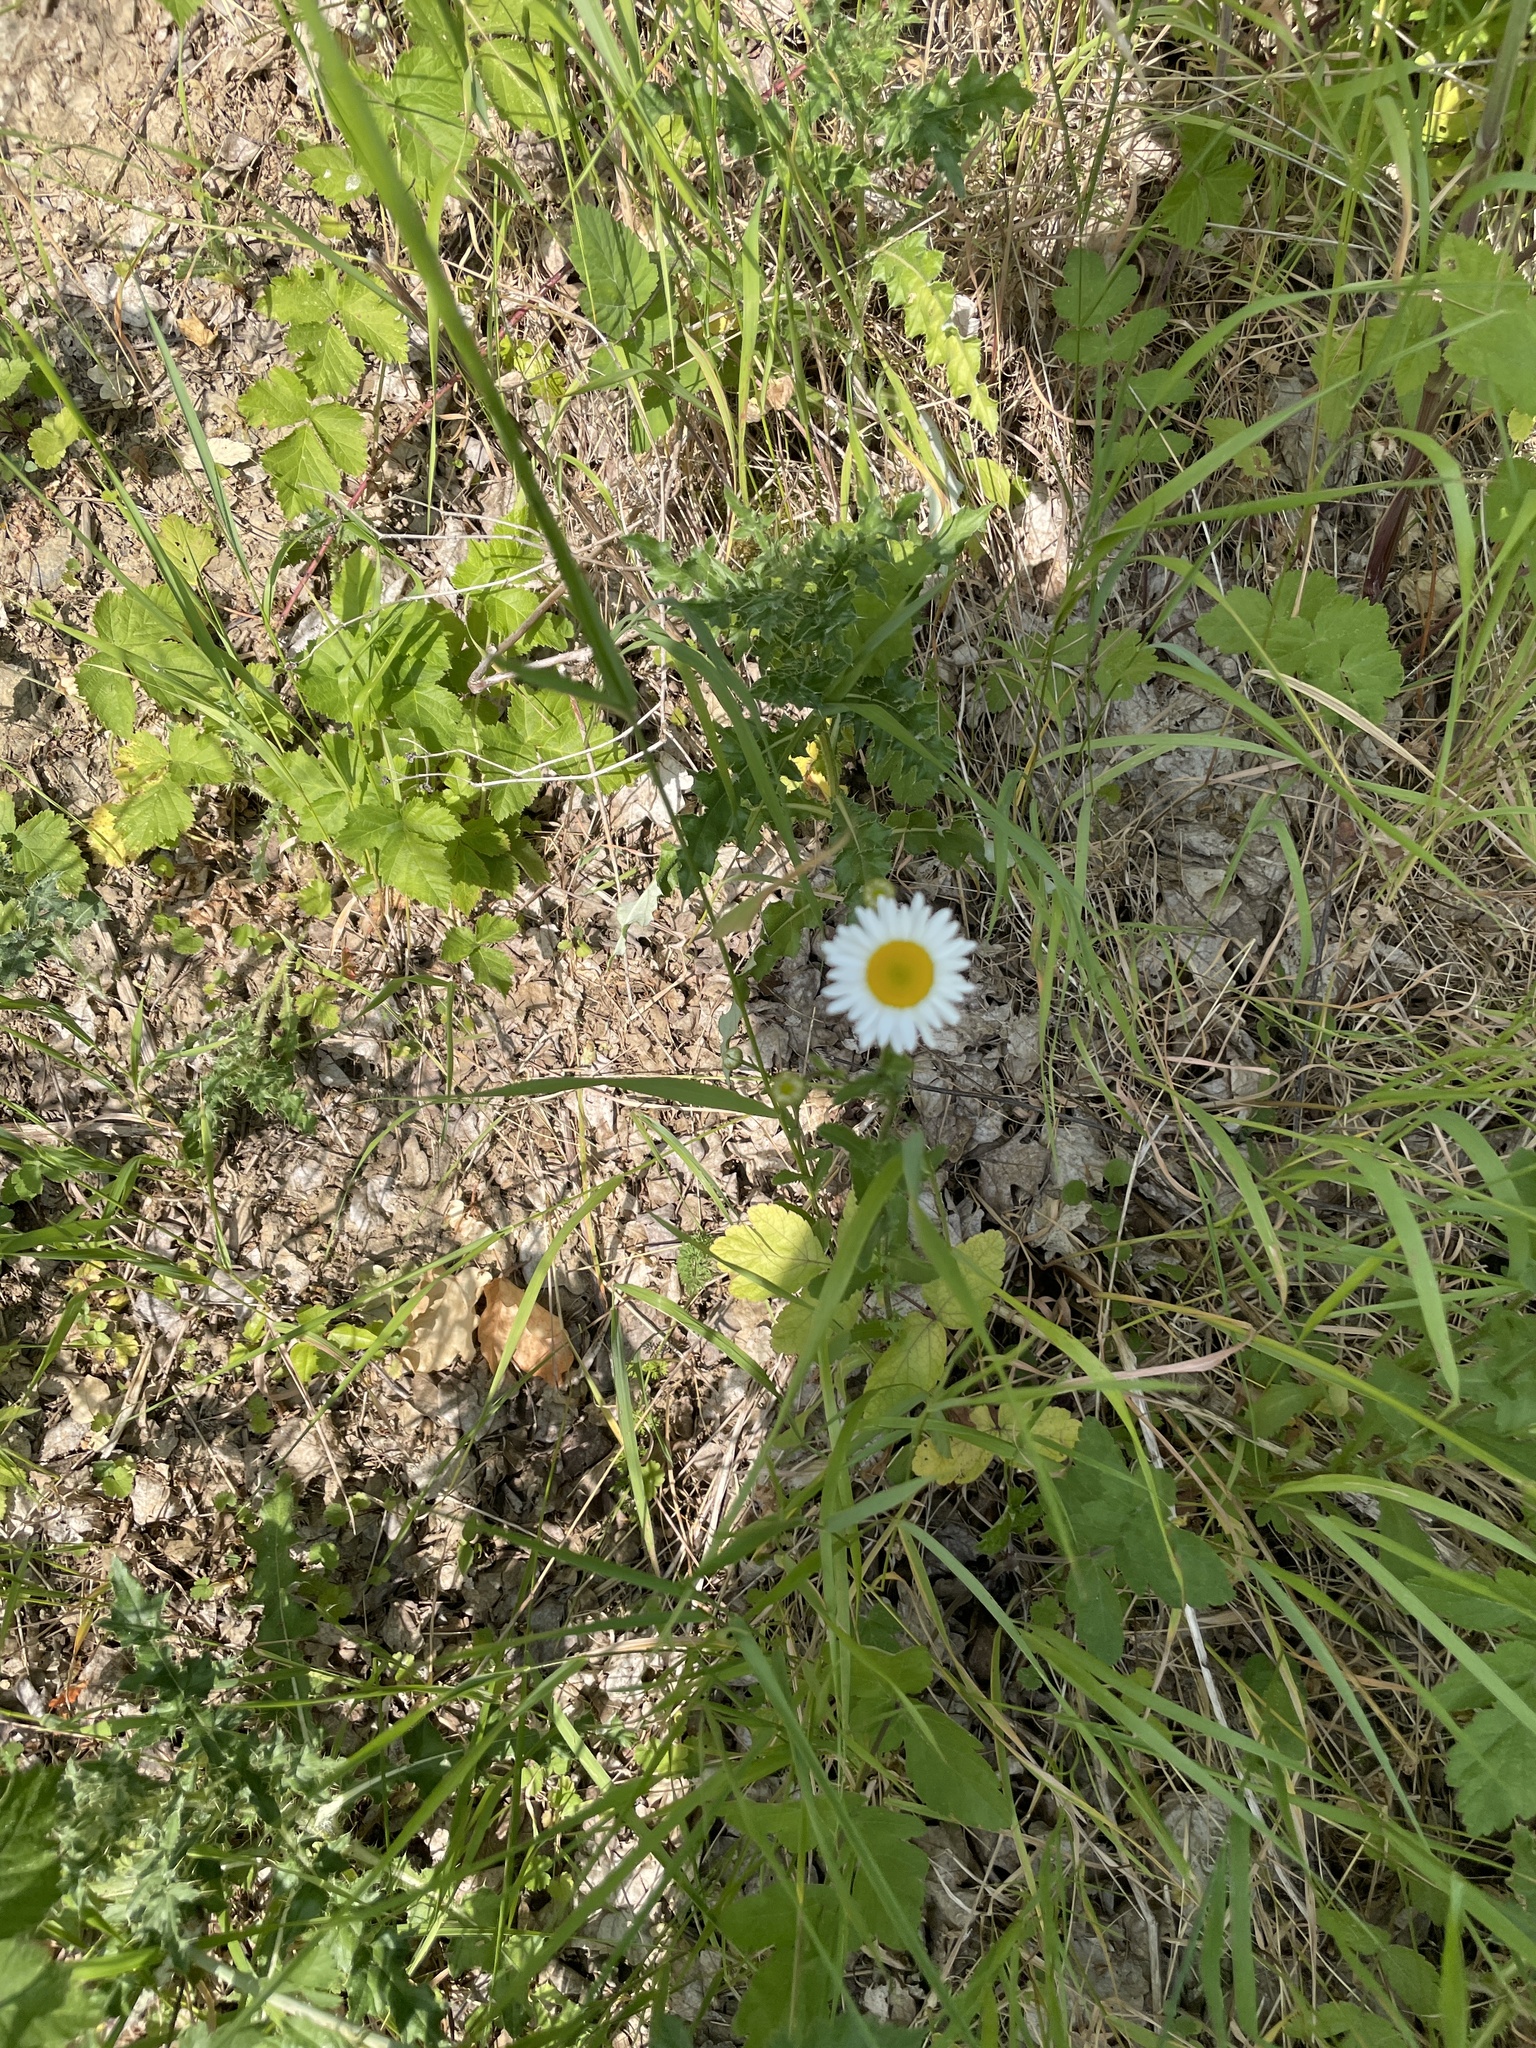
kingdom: Plantae
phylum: Tracheophyta
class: Magnoliopsida
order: Asterales
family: Asteraceae
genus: Leucanthemum
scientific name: Leucanthemum vulgare
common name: Oxeye daisy
